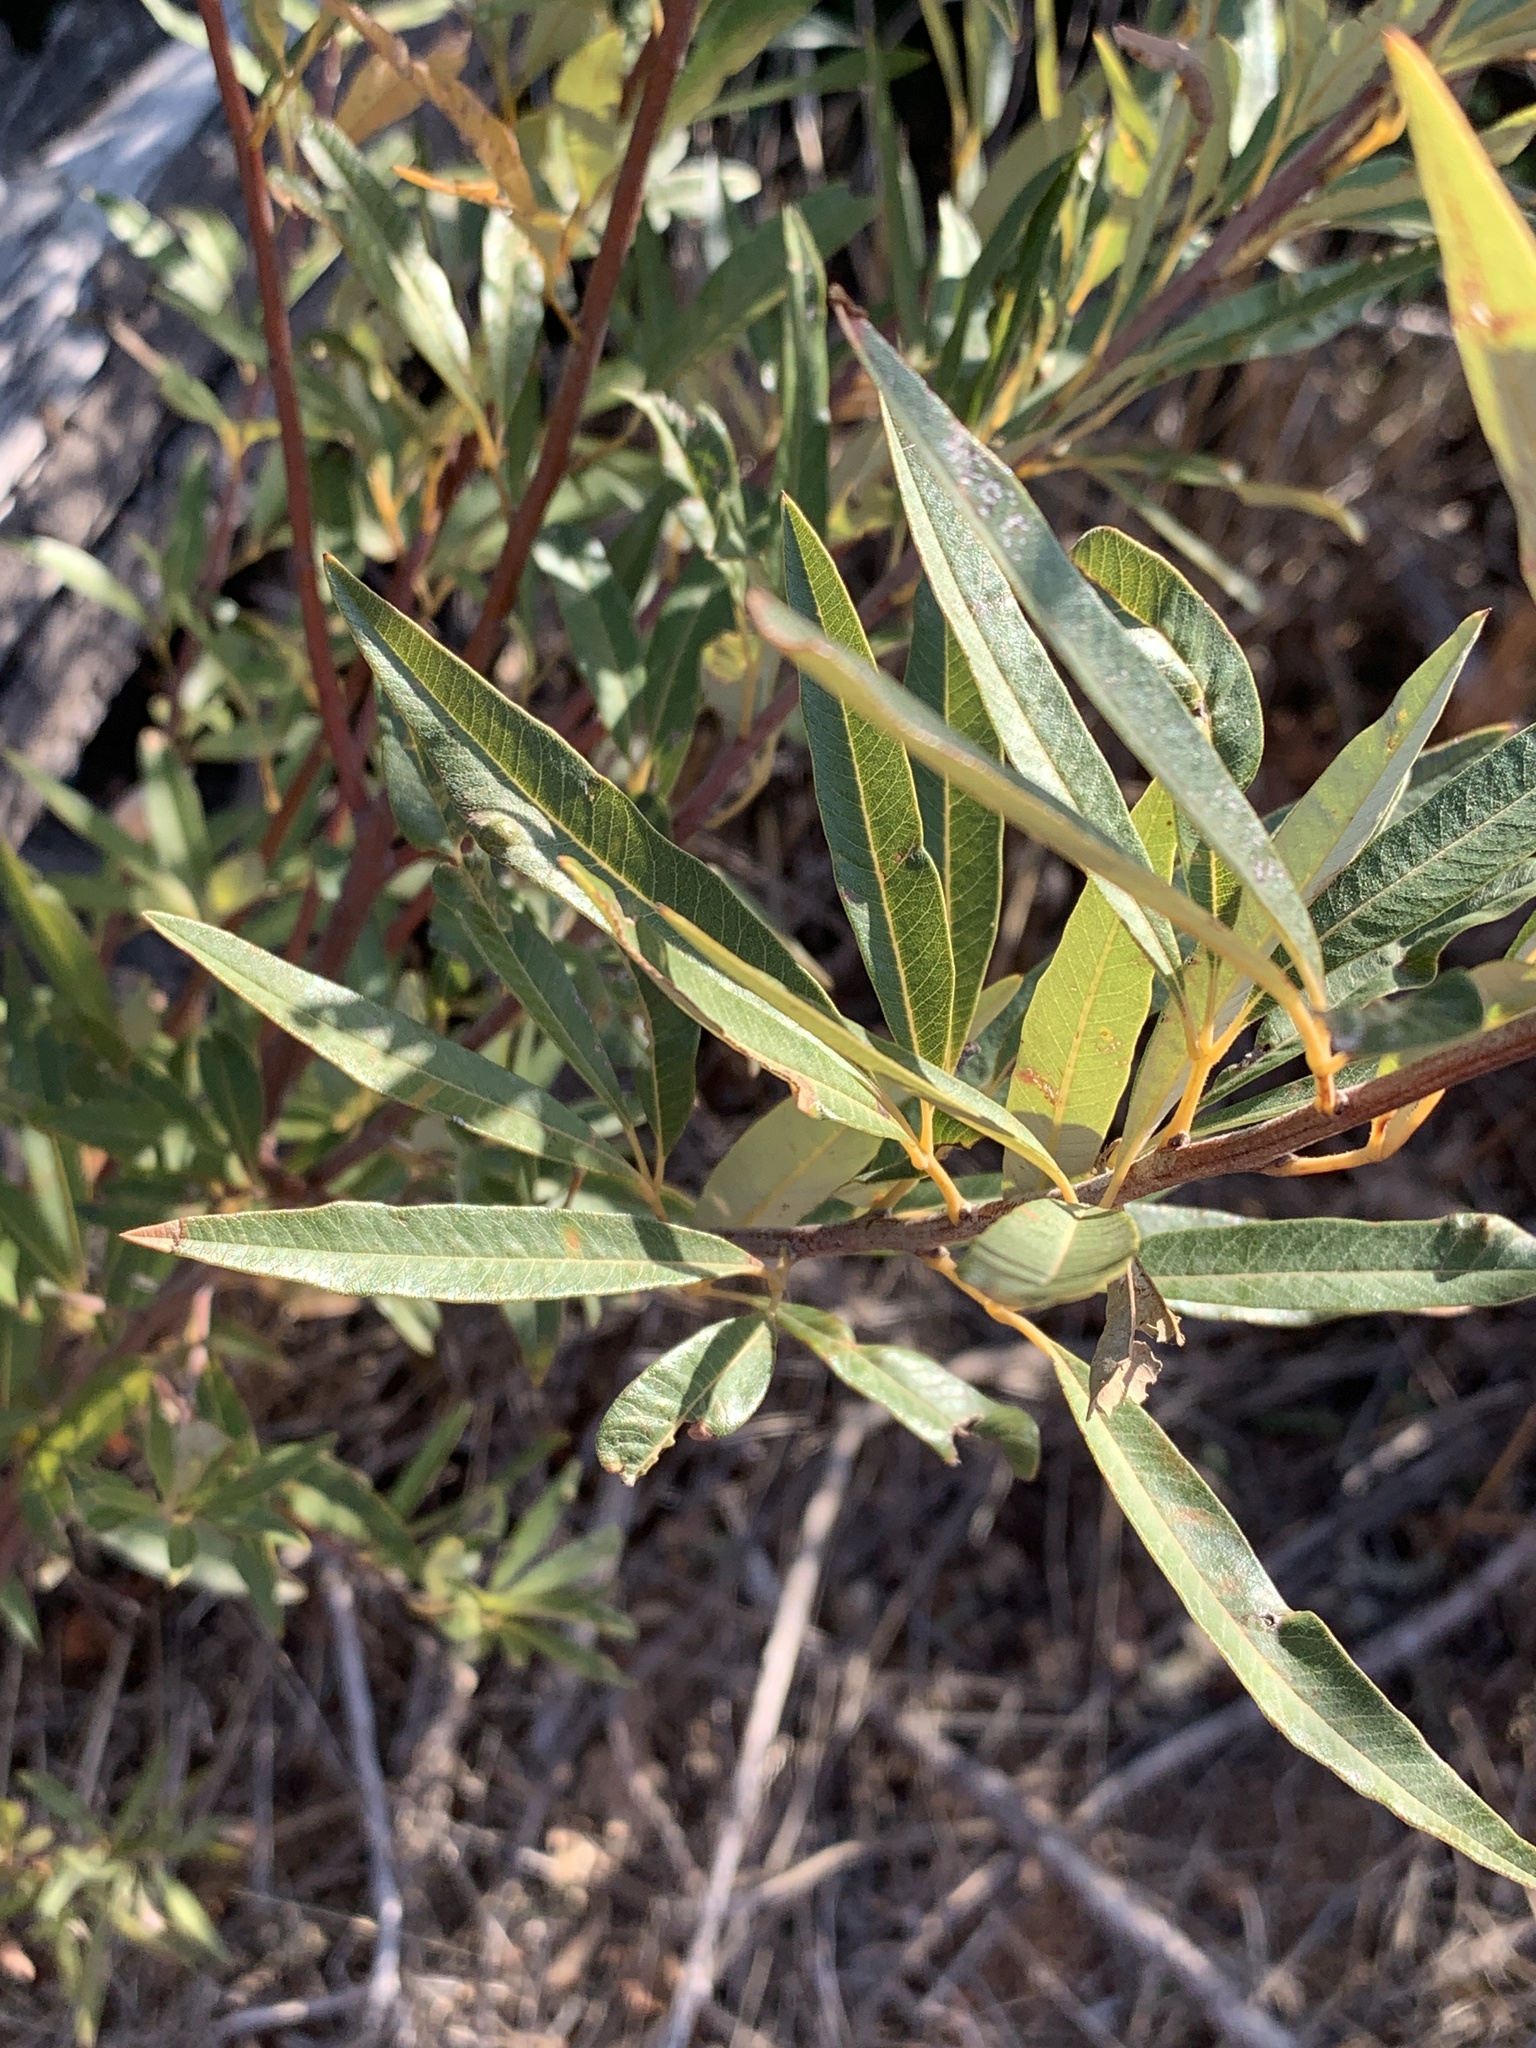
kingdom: Plantae
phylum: Tracheophyta
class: Magnoliopsida
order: Sapindales
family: Anacardiaceae
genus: Searsia
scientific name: Searsia angustifolia
